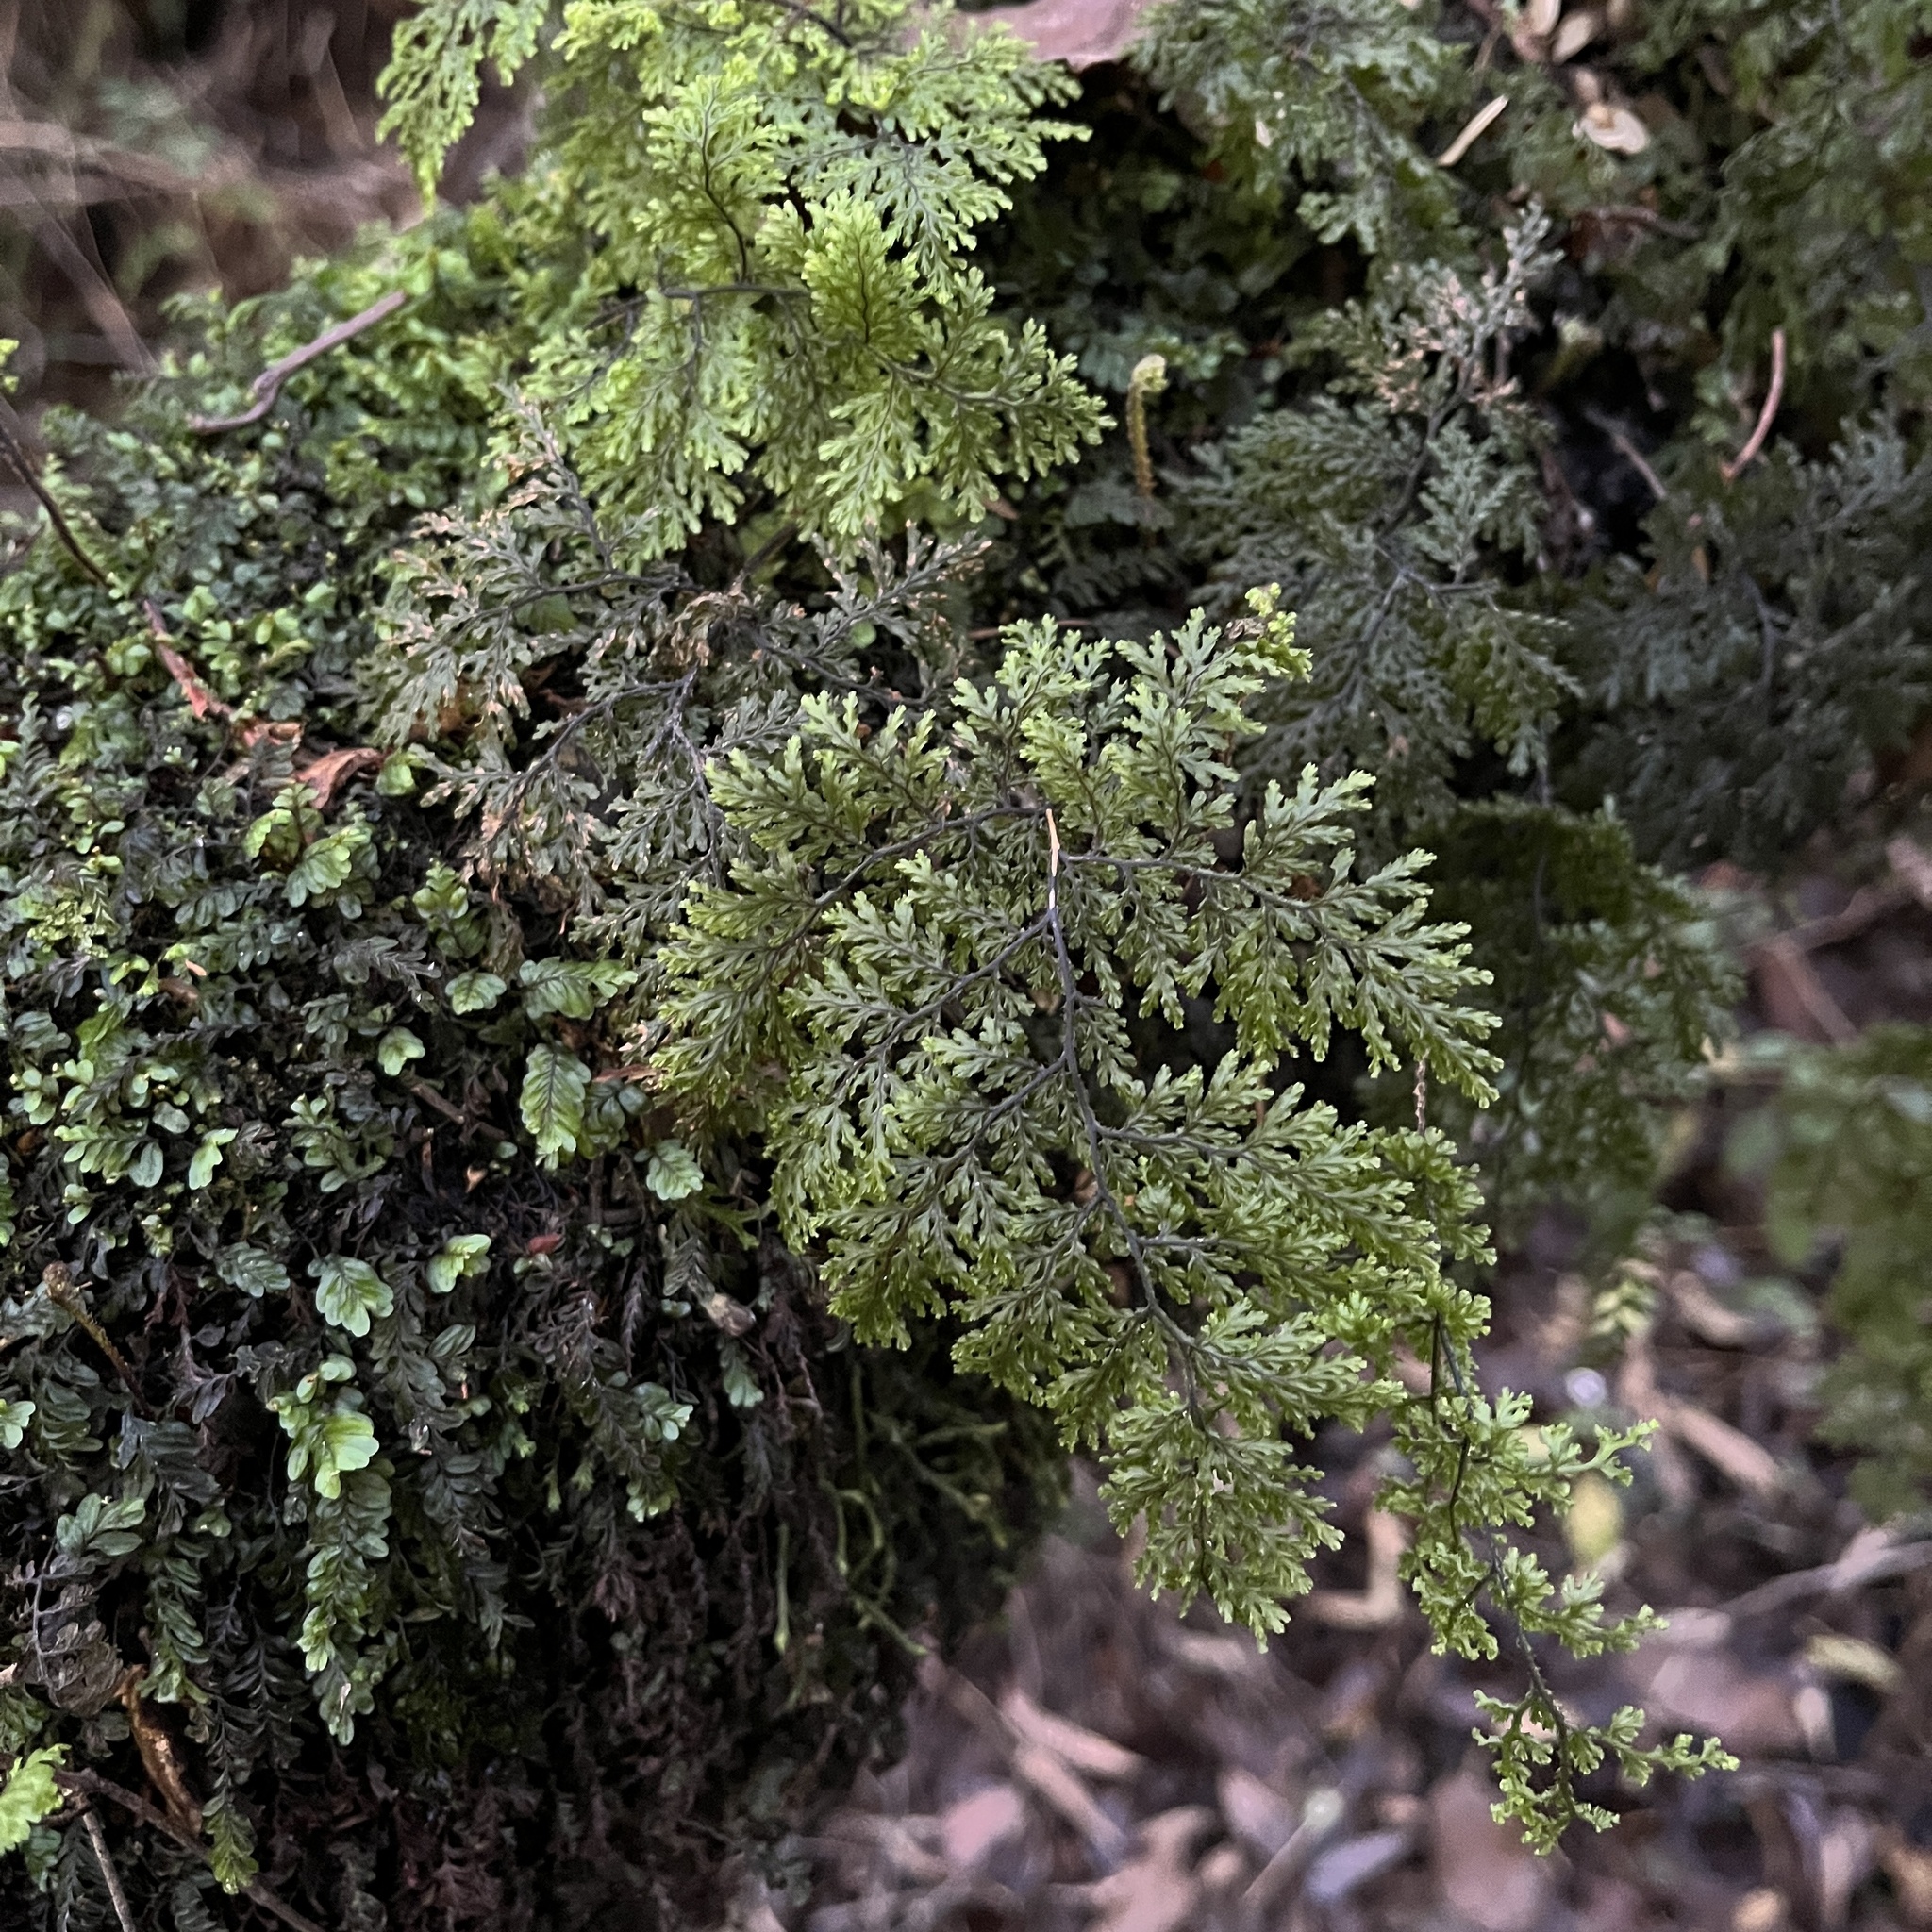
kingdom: Plantae
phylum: Tracheophyta
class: Polypodiopsida
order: Hymenophyllales
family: Hymenophyllaceae
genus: Hymenophyllum
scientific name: Hymenophyllum plicatum
